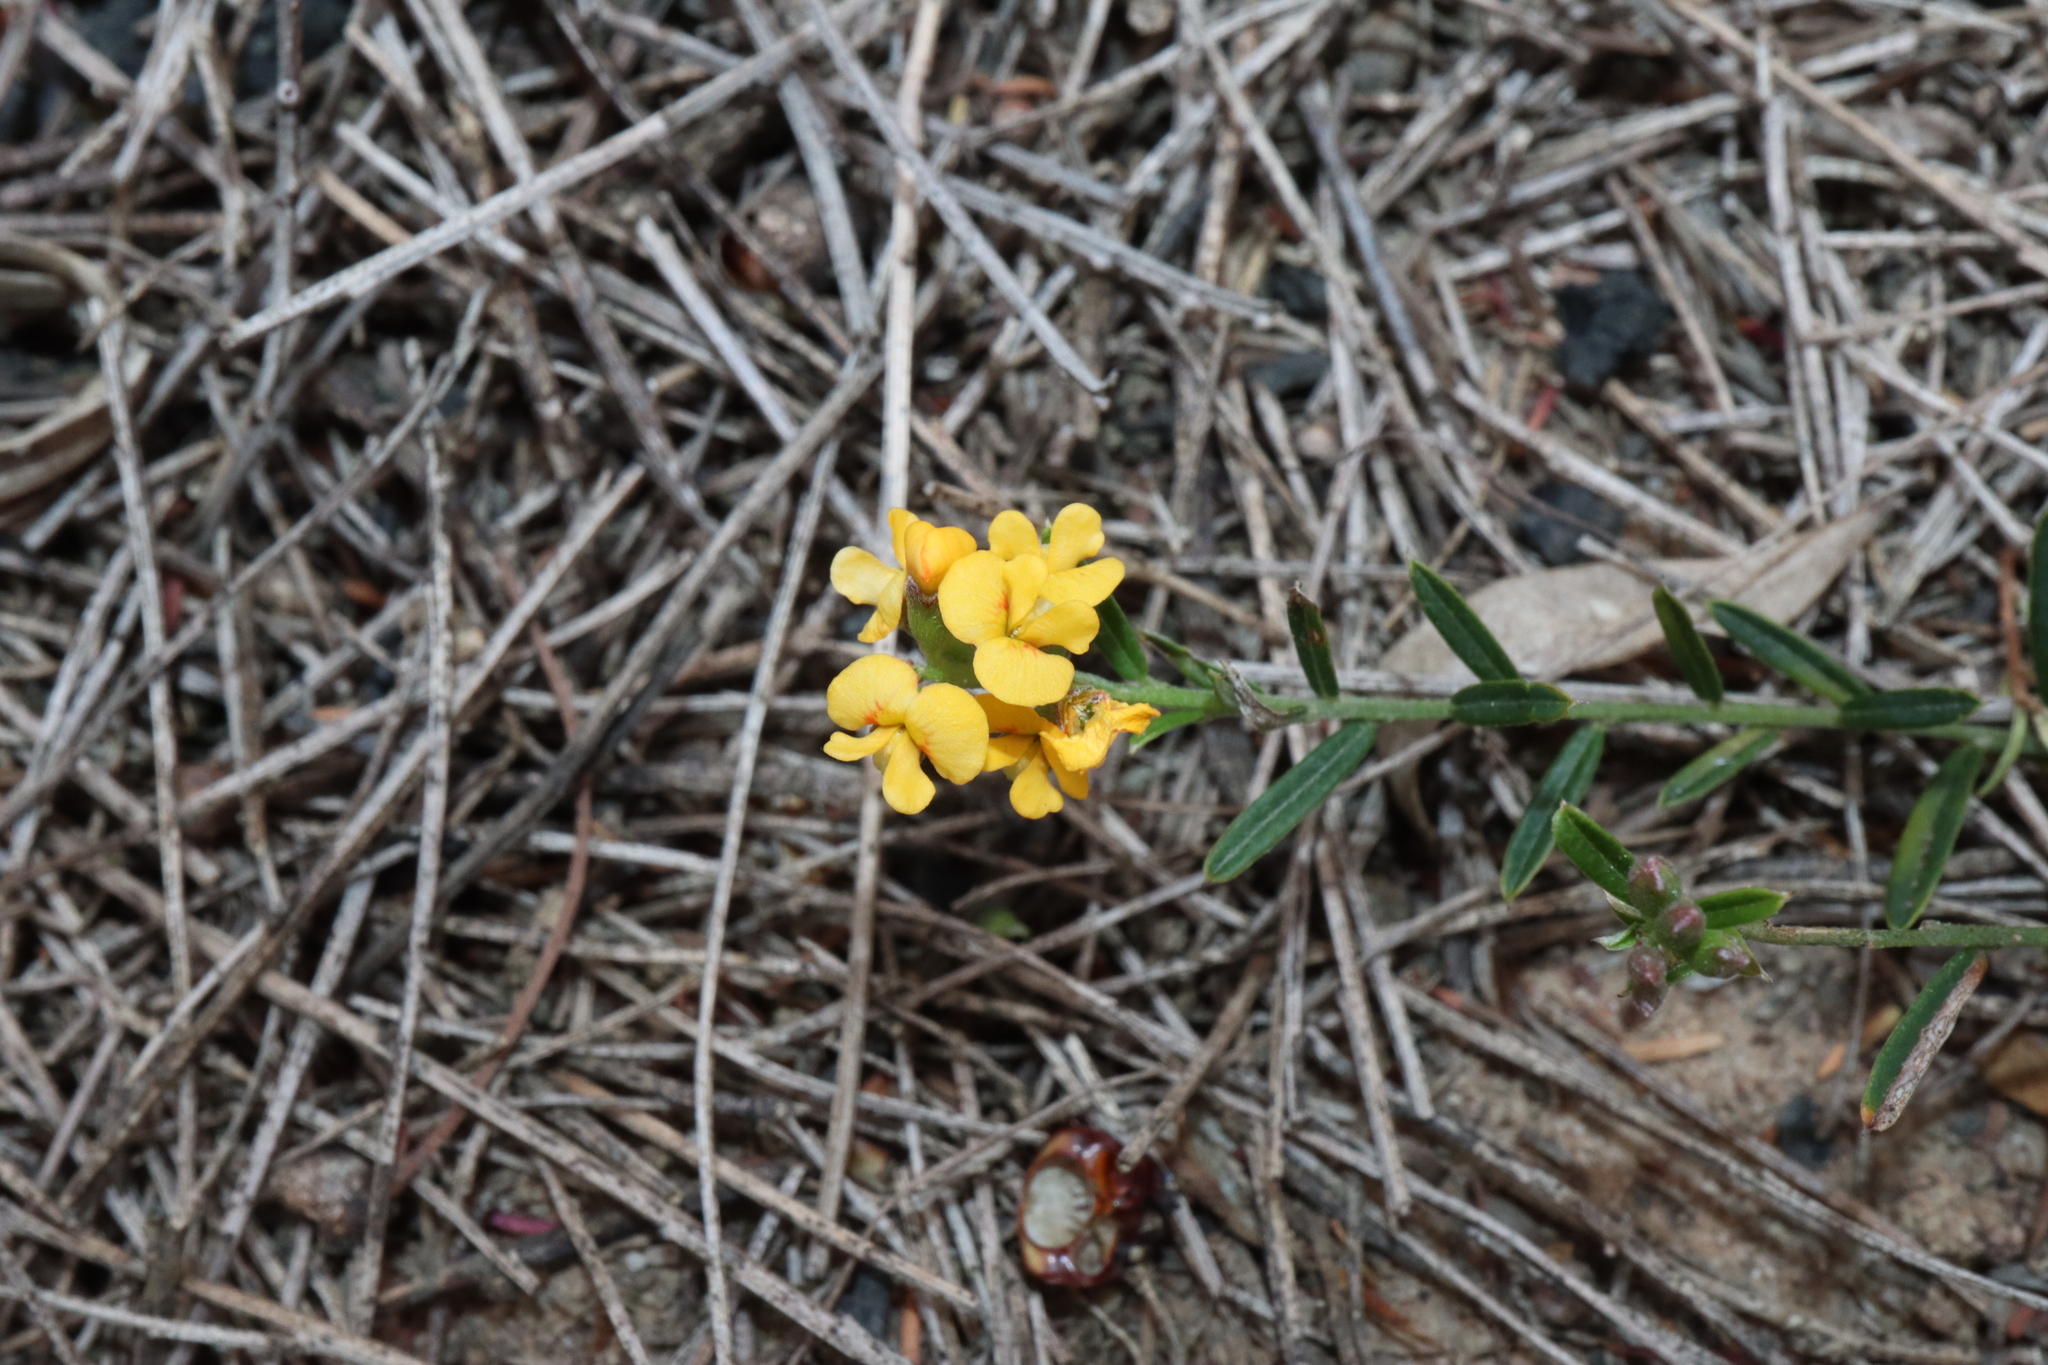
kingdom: Plantae
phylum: Tracheophyta
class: Magnoliopsida
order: Fabales
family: Fabaceae
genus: Chorizema
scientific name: Chorizema parviflorum
